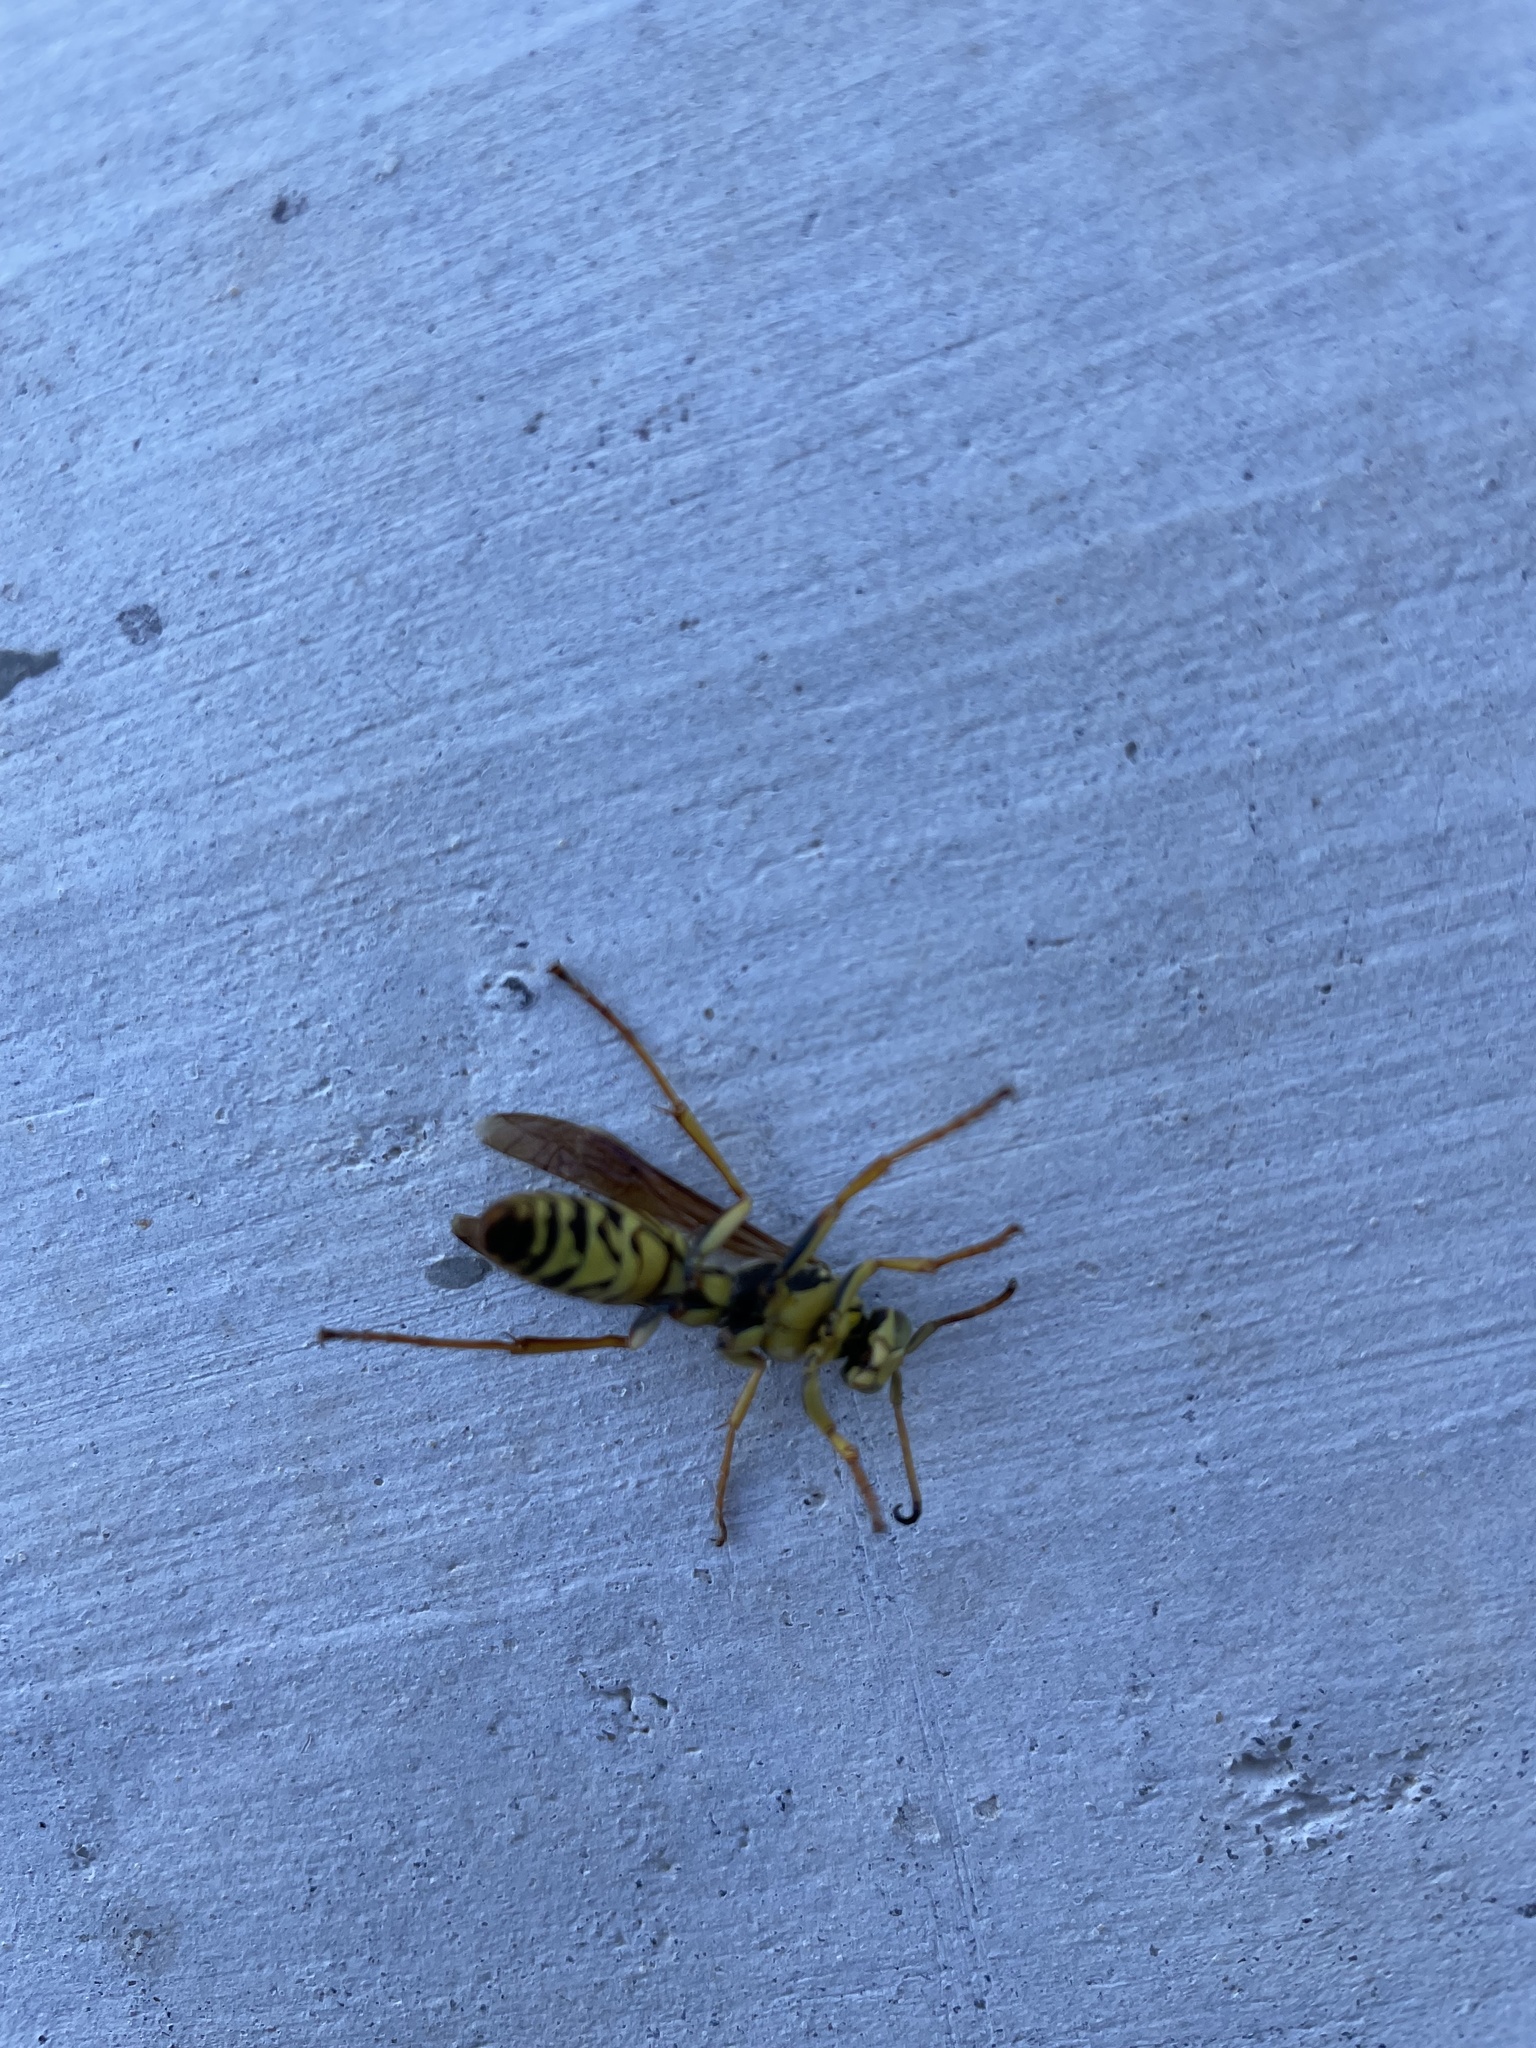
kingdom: Animalia
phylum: Arthropoda
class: Insecta
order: Hymenoptera
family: Eumenidae
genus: Polistes
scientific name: Polistes fuscatus
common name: Dark paper wasp
